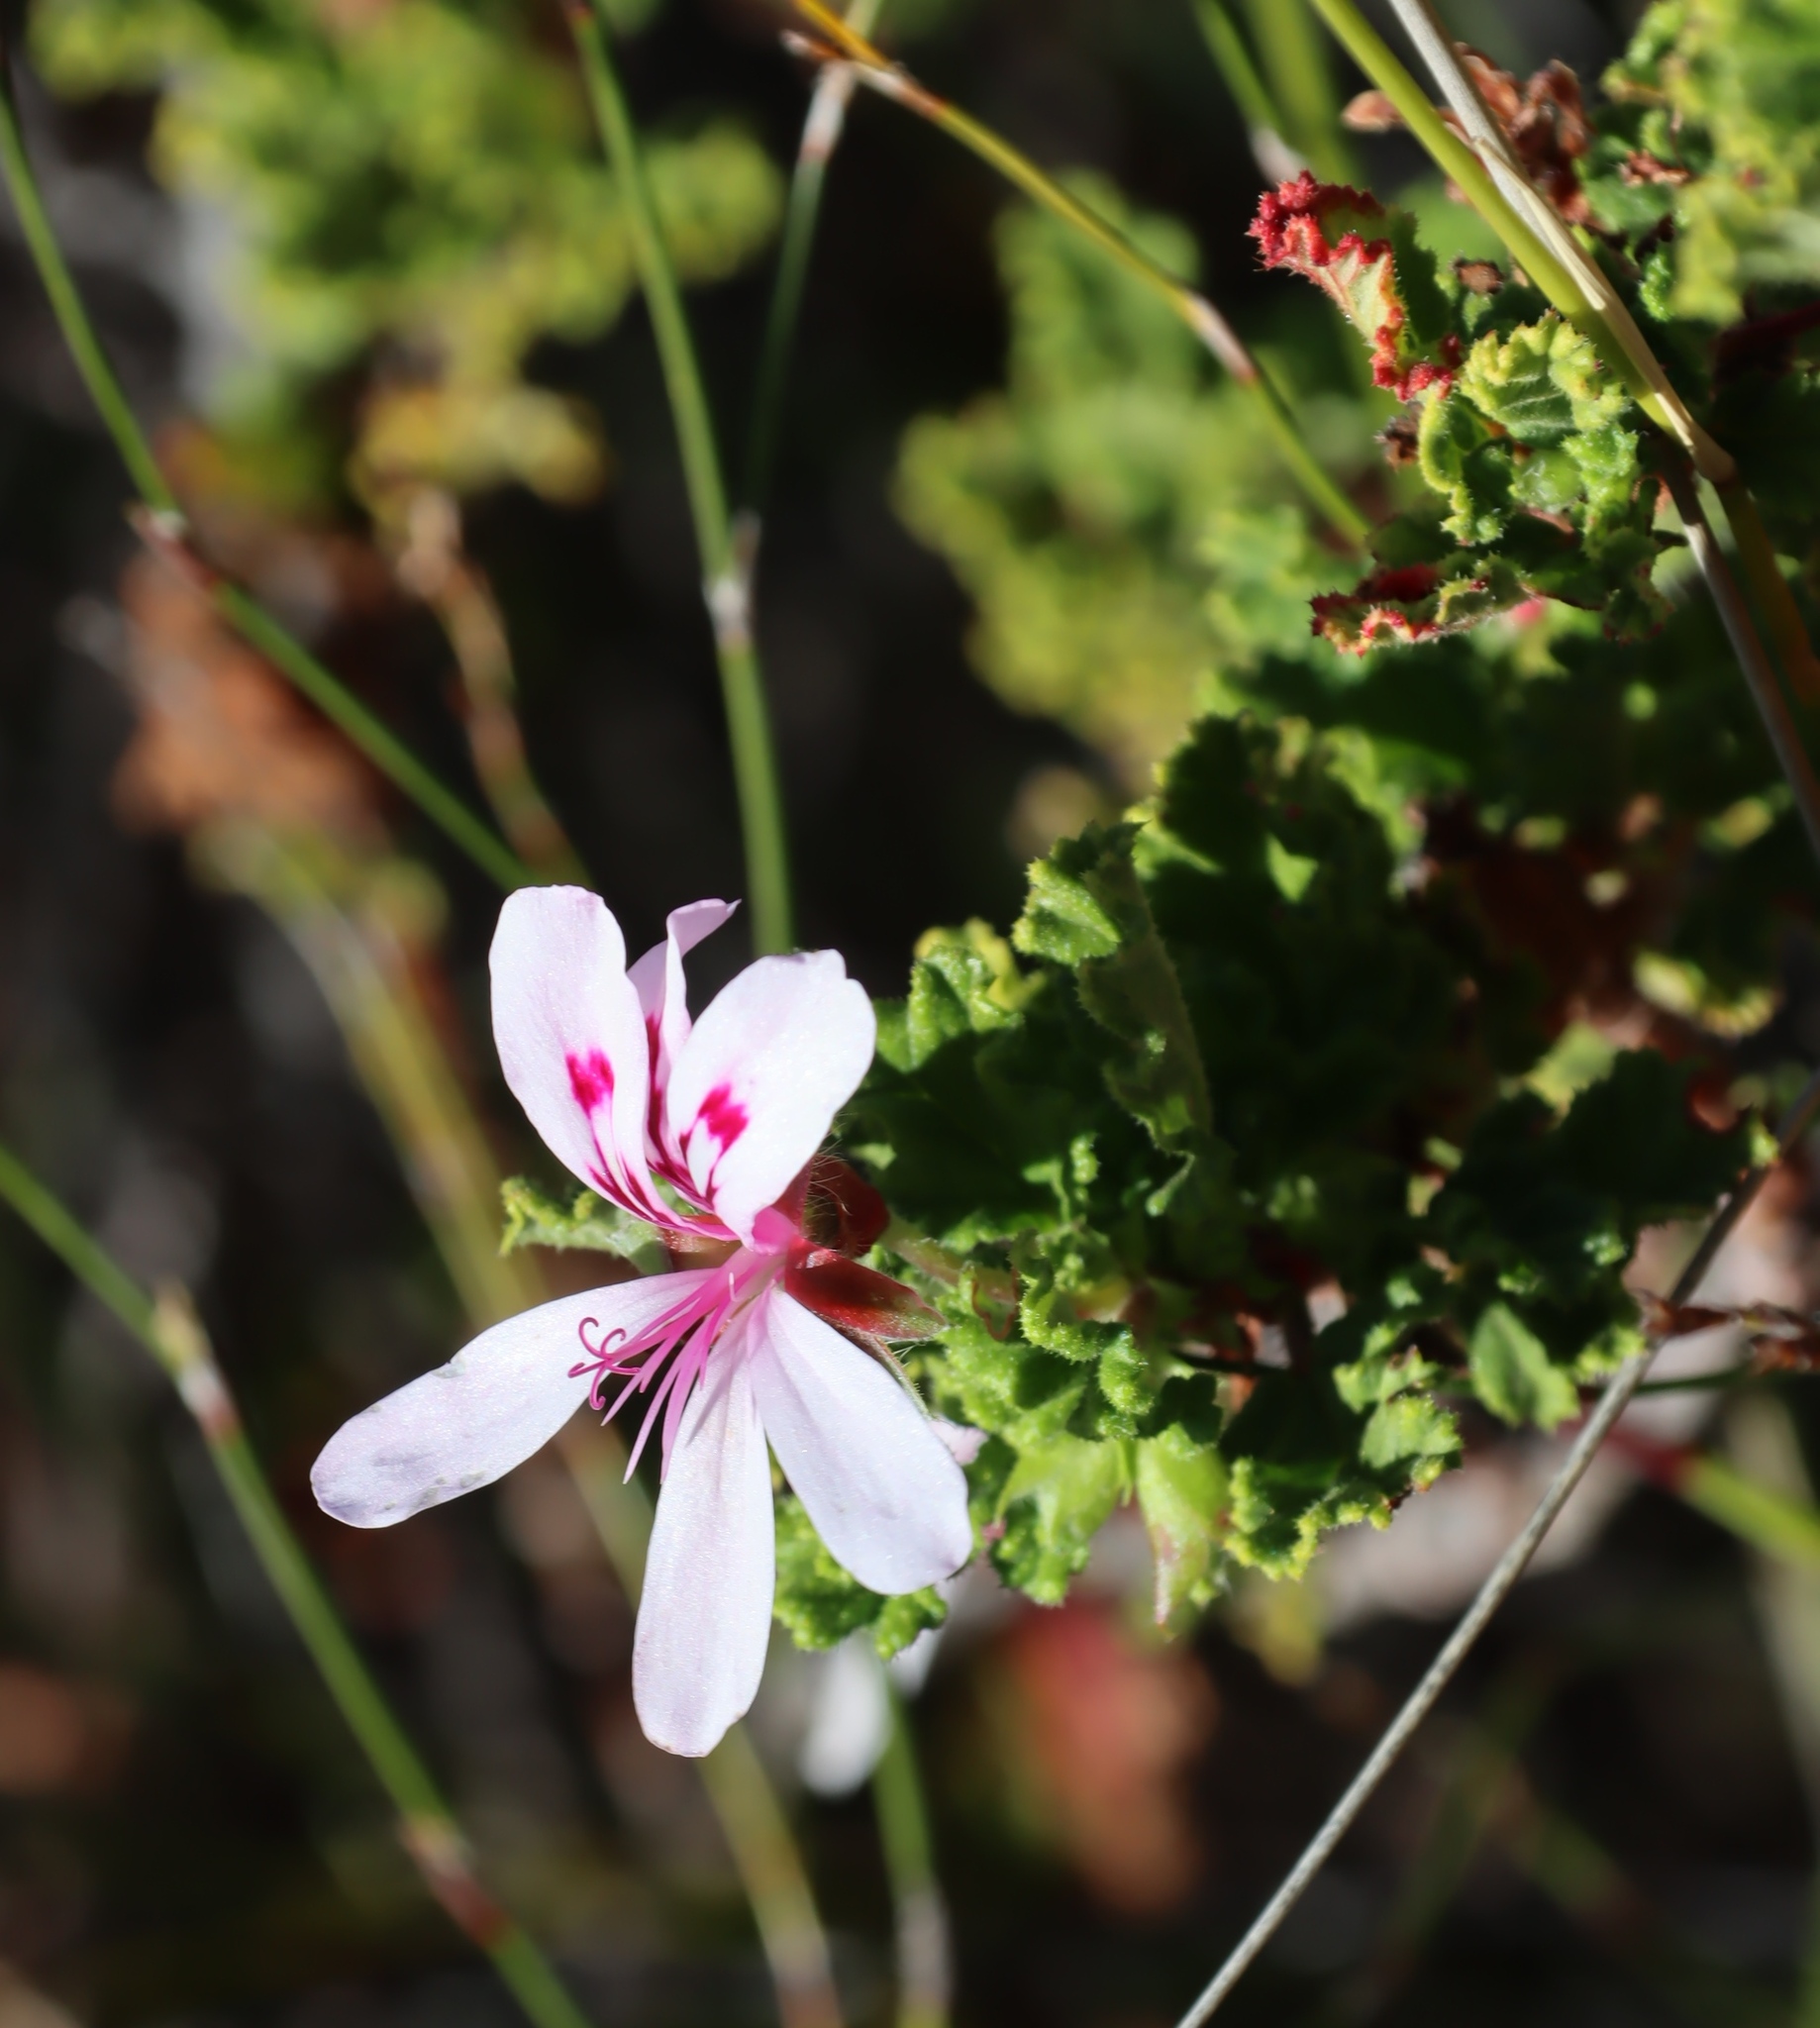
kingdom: Plantae
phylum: Tracheophyta
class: Magnoliopsida
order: Geraniales
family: Geraniaceae
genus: Pelargonium
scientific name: Pelargonium panduriforme
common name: Oakleaf garden geranium
